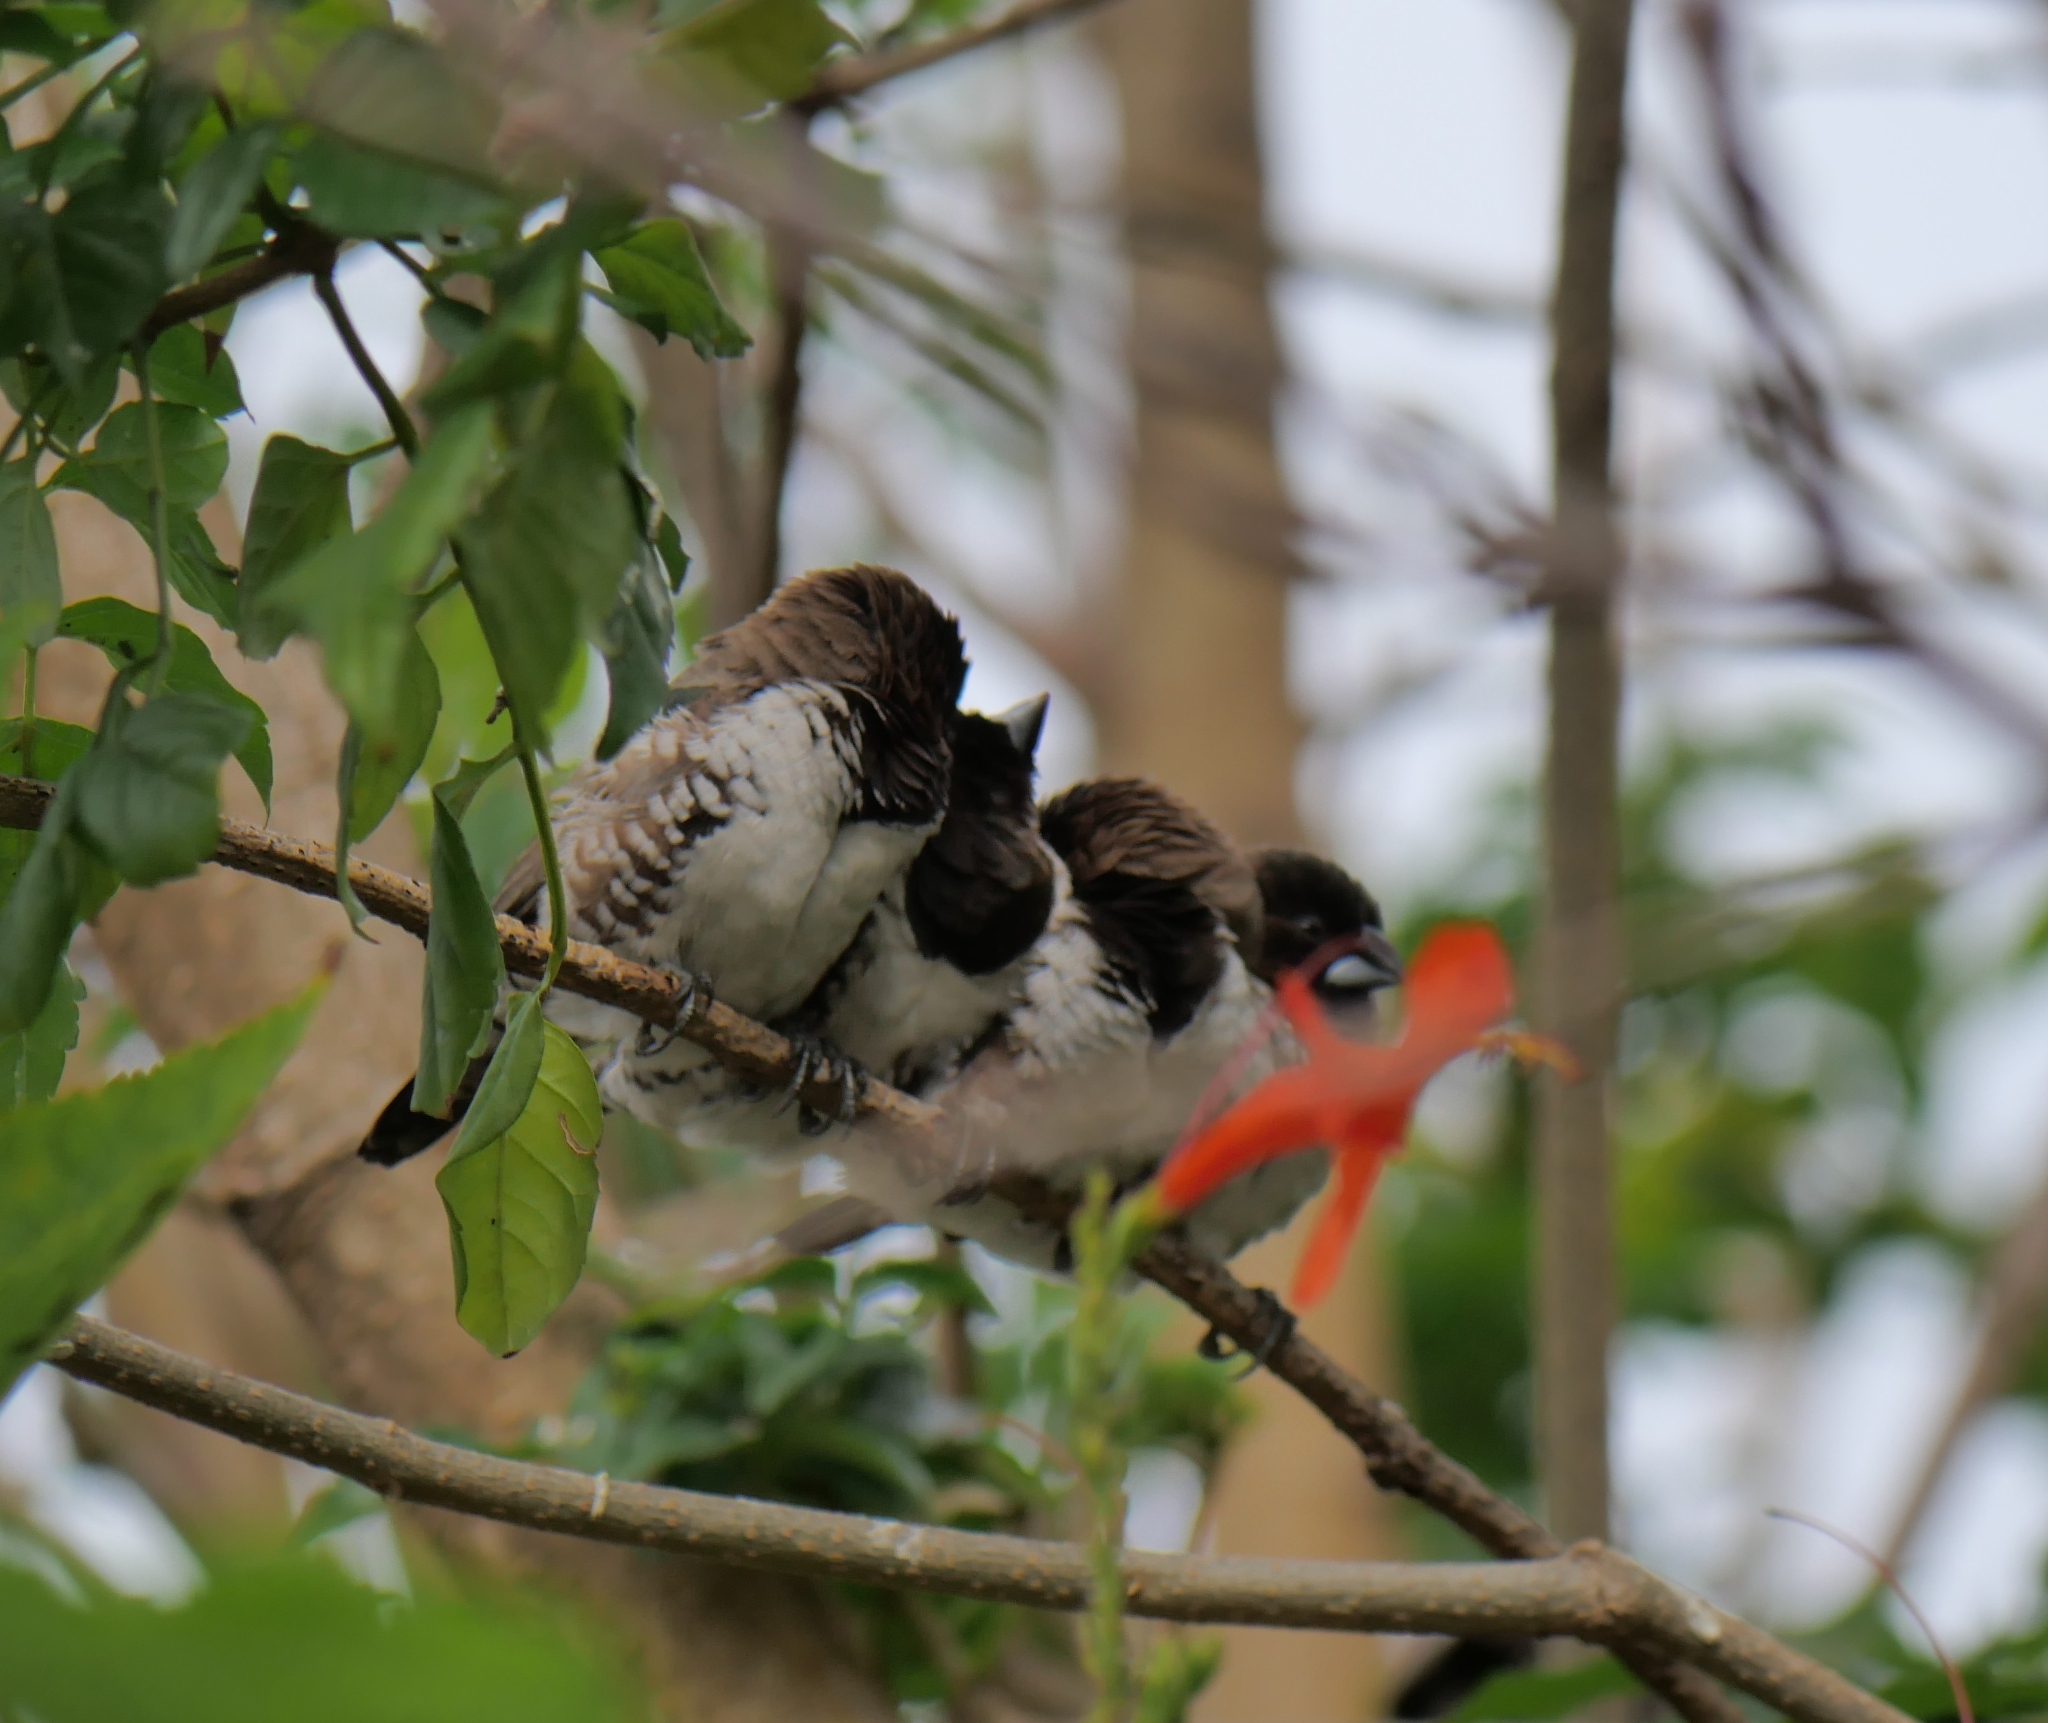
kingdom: Animalia
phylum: Chordata
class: Aves
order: Passeriformes
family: Estrildidae
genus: Lonchura
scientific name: Lonchura cucullata
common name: Bronze mannikin
